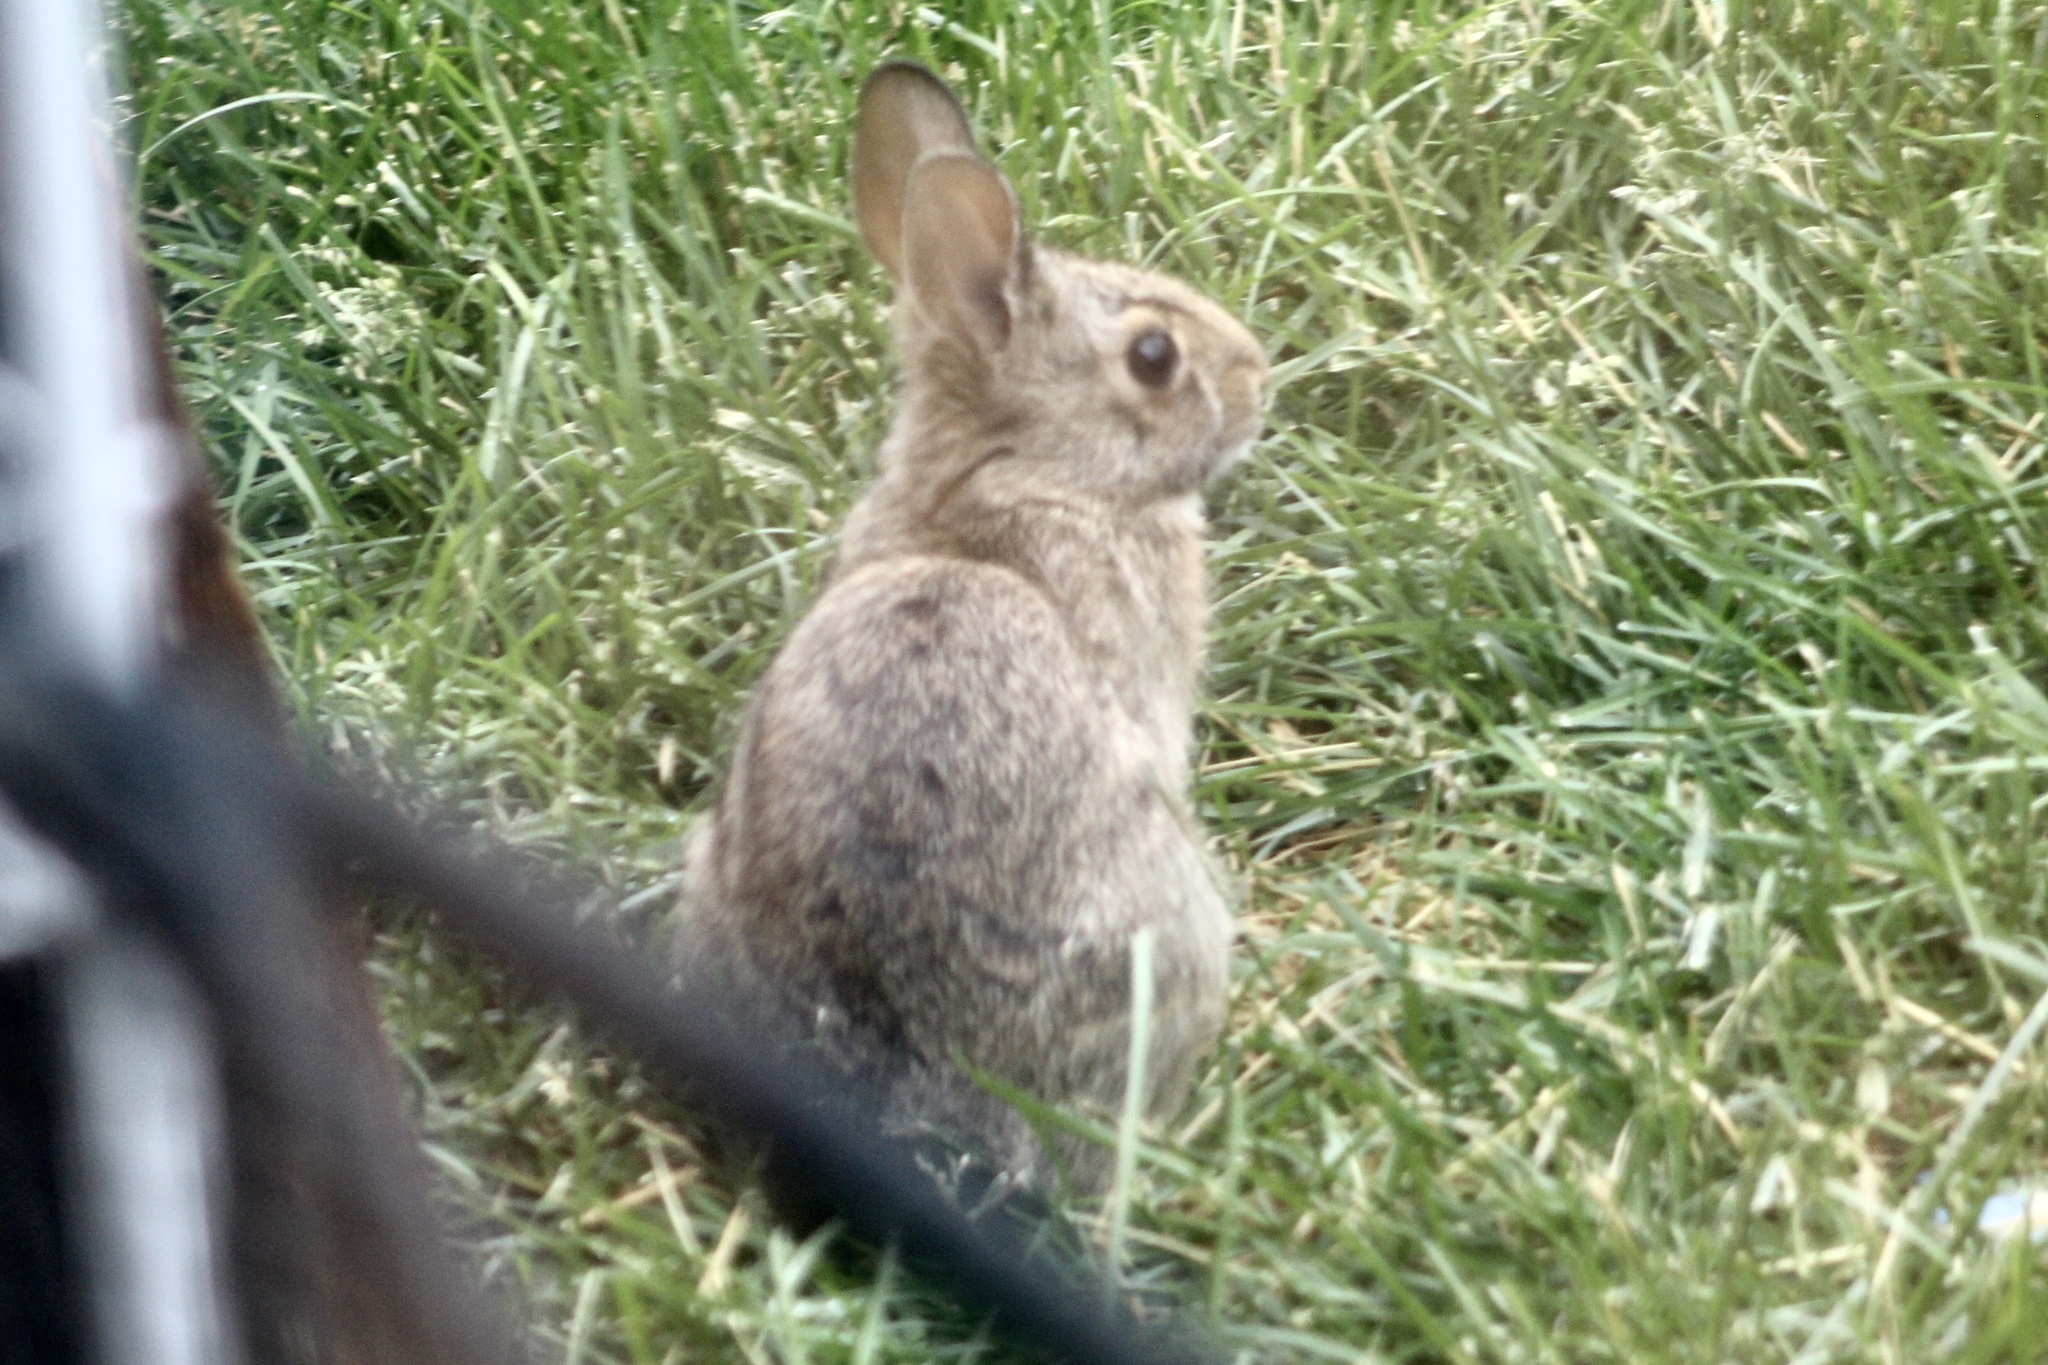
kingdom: Animalia
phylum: Chordata
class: Mammalia
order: Lagomorpha
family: Leporidae
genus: Sylvilagus
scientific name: Sylvilagus floridanus
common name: Eastern cottontail
